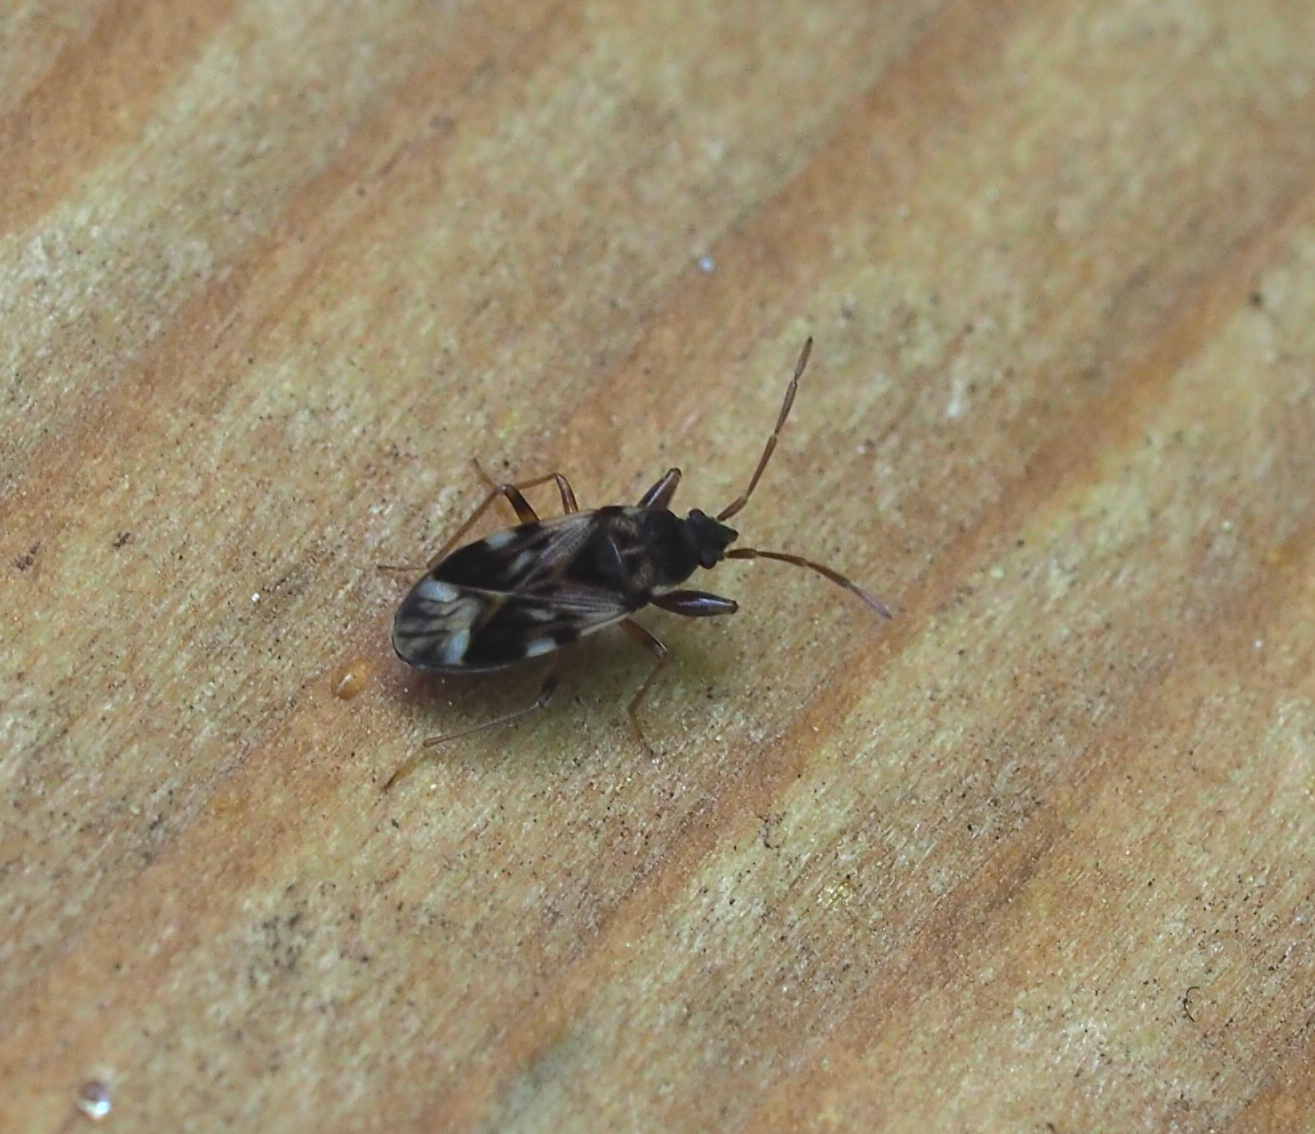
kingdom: Animalia
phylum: Arthropoda
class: Insecta
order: Hemiptera
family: Rhyparochromidae
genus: Scolopostethus
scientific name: Scolopostethus pictus
